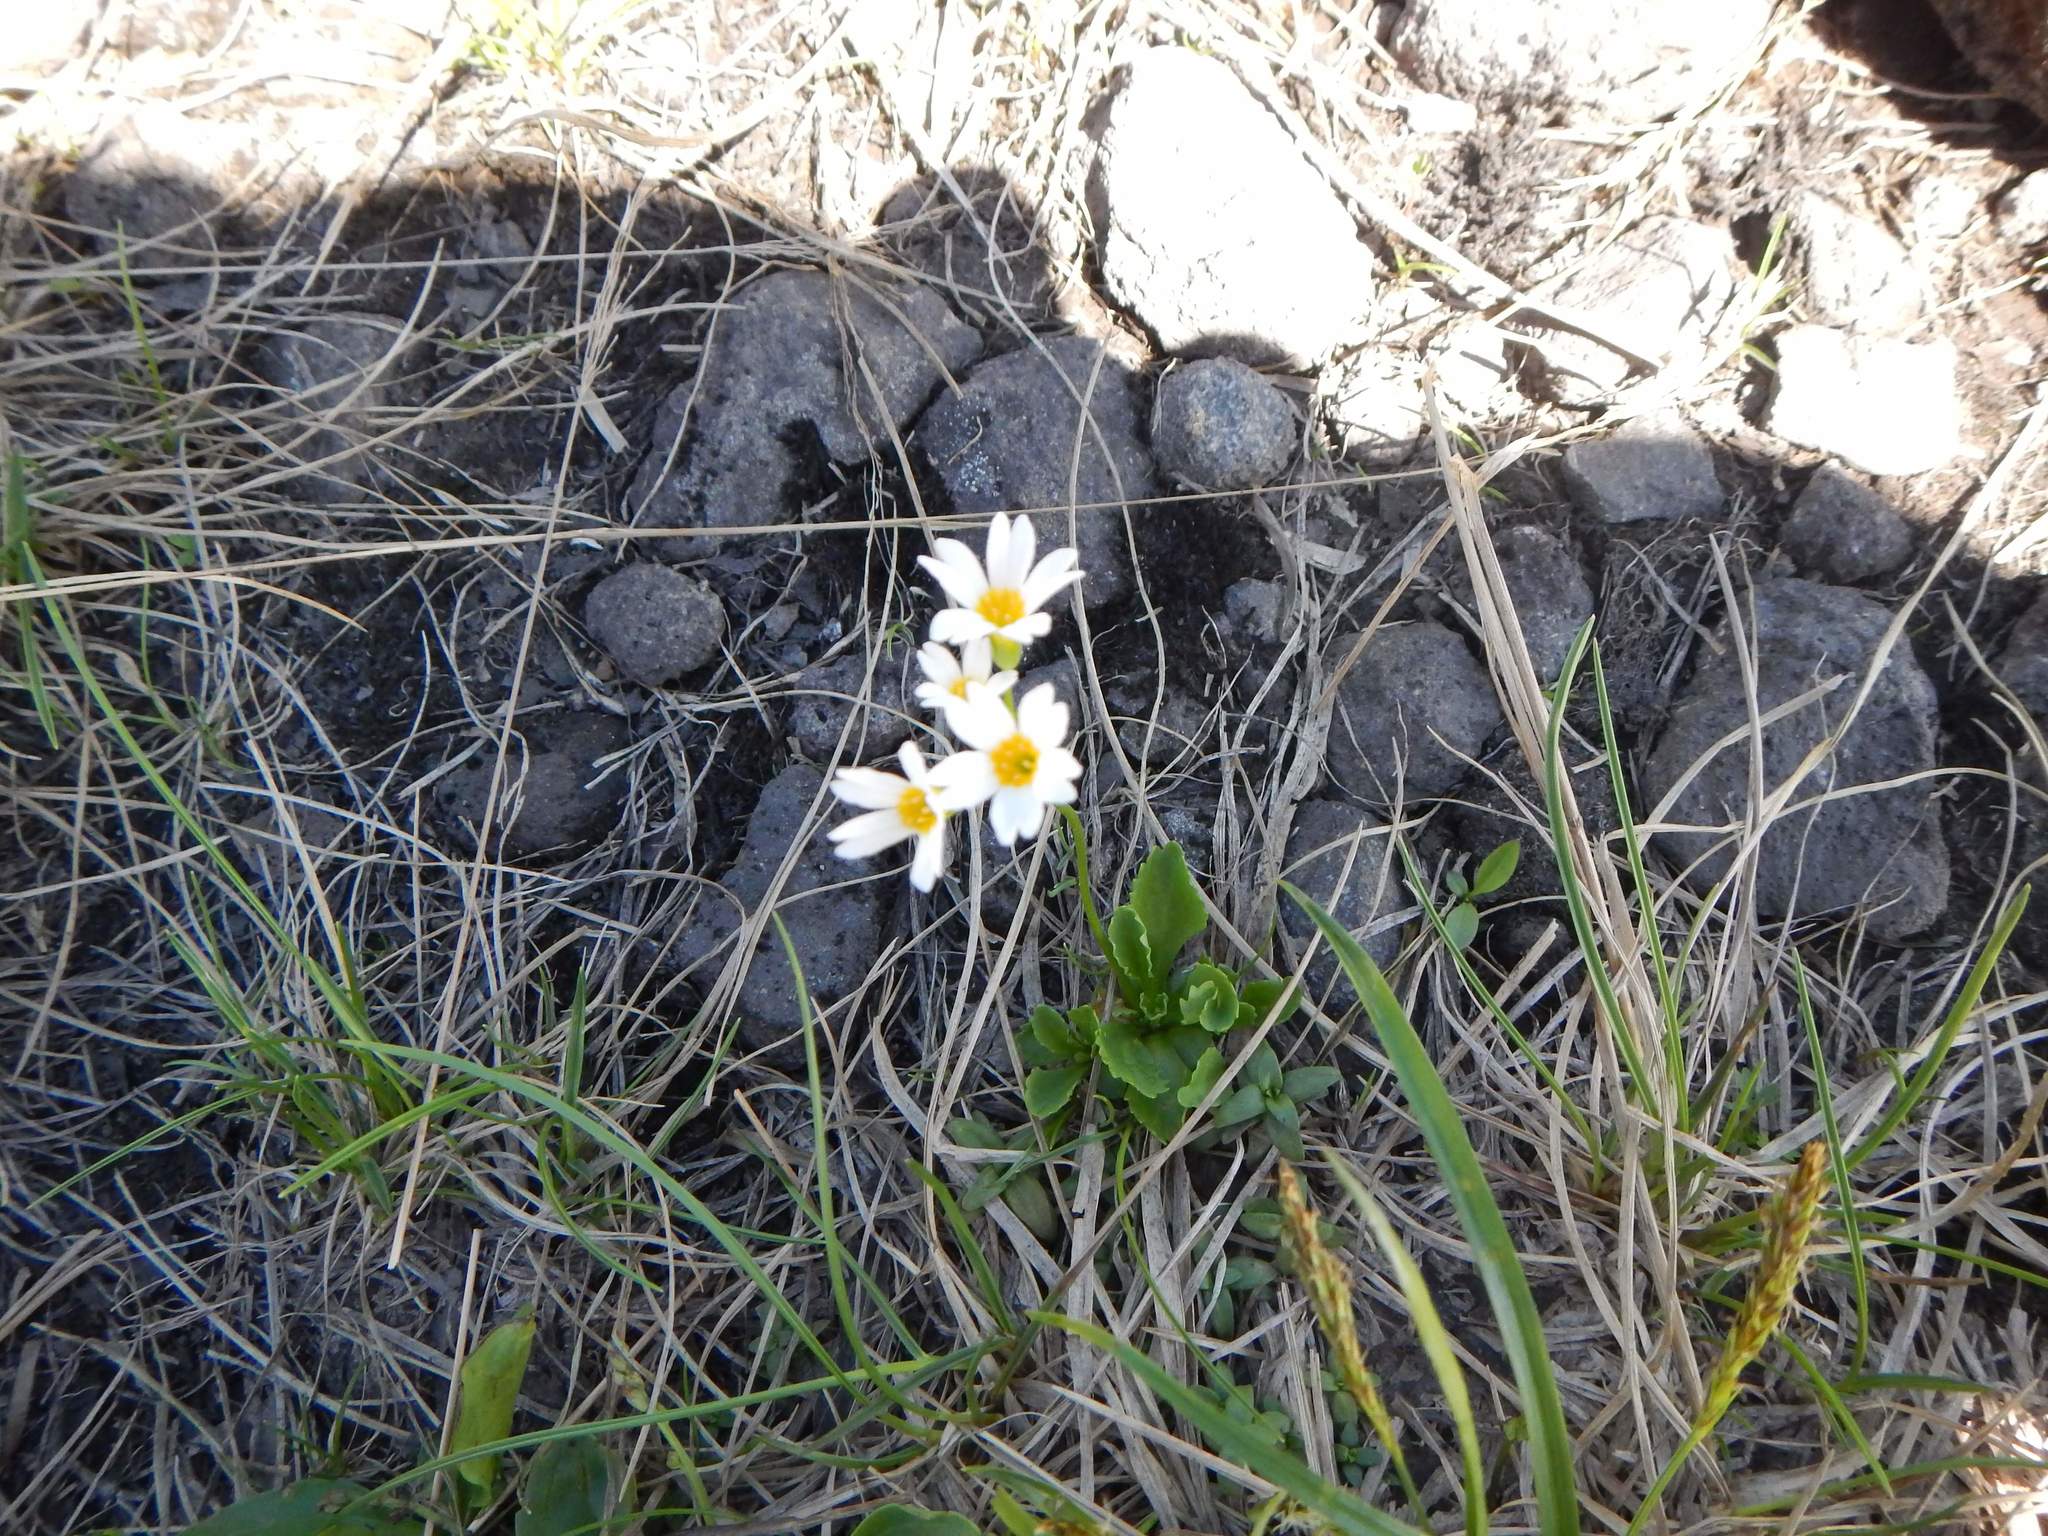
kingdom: Plantae
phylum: Tracheophyta
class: Magnoliopsida
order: Ericales
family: Primulaceae
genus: Primula
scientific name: Primula nipponica
